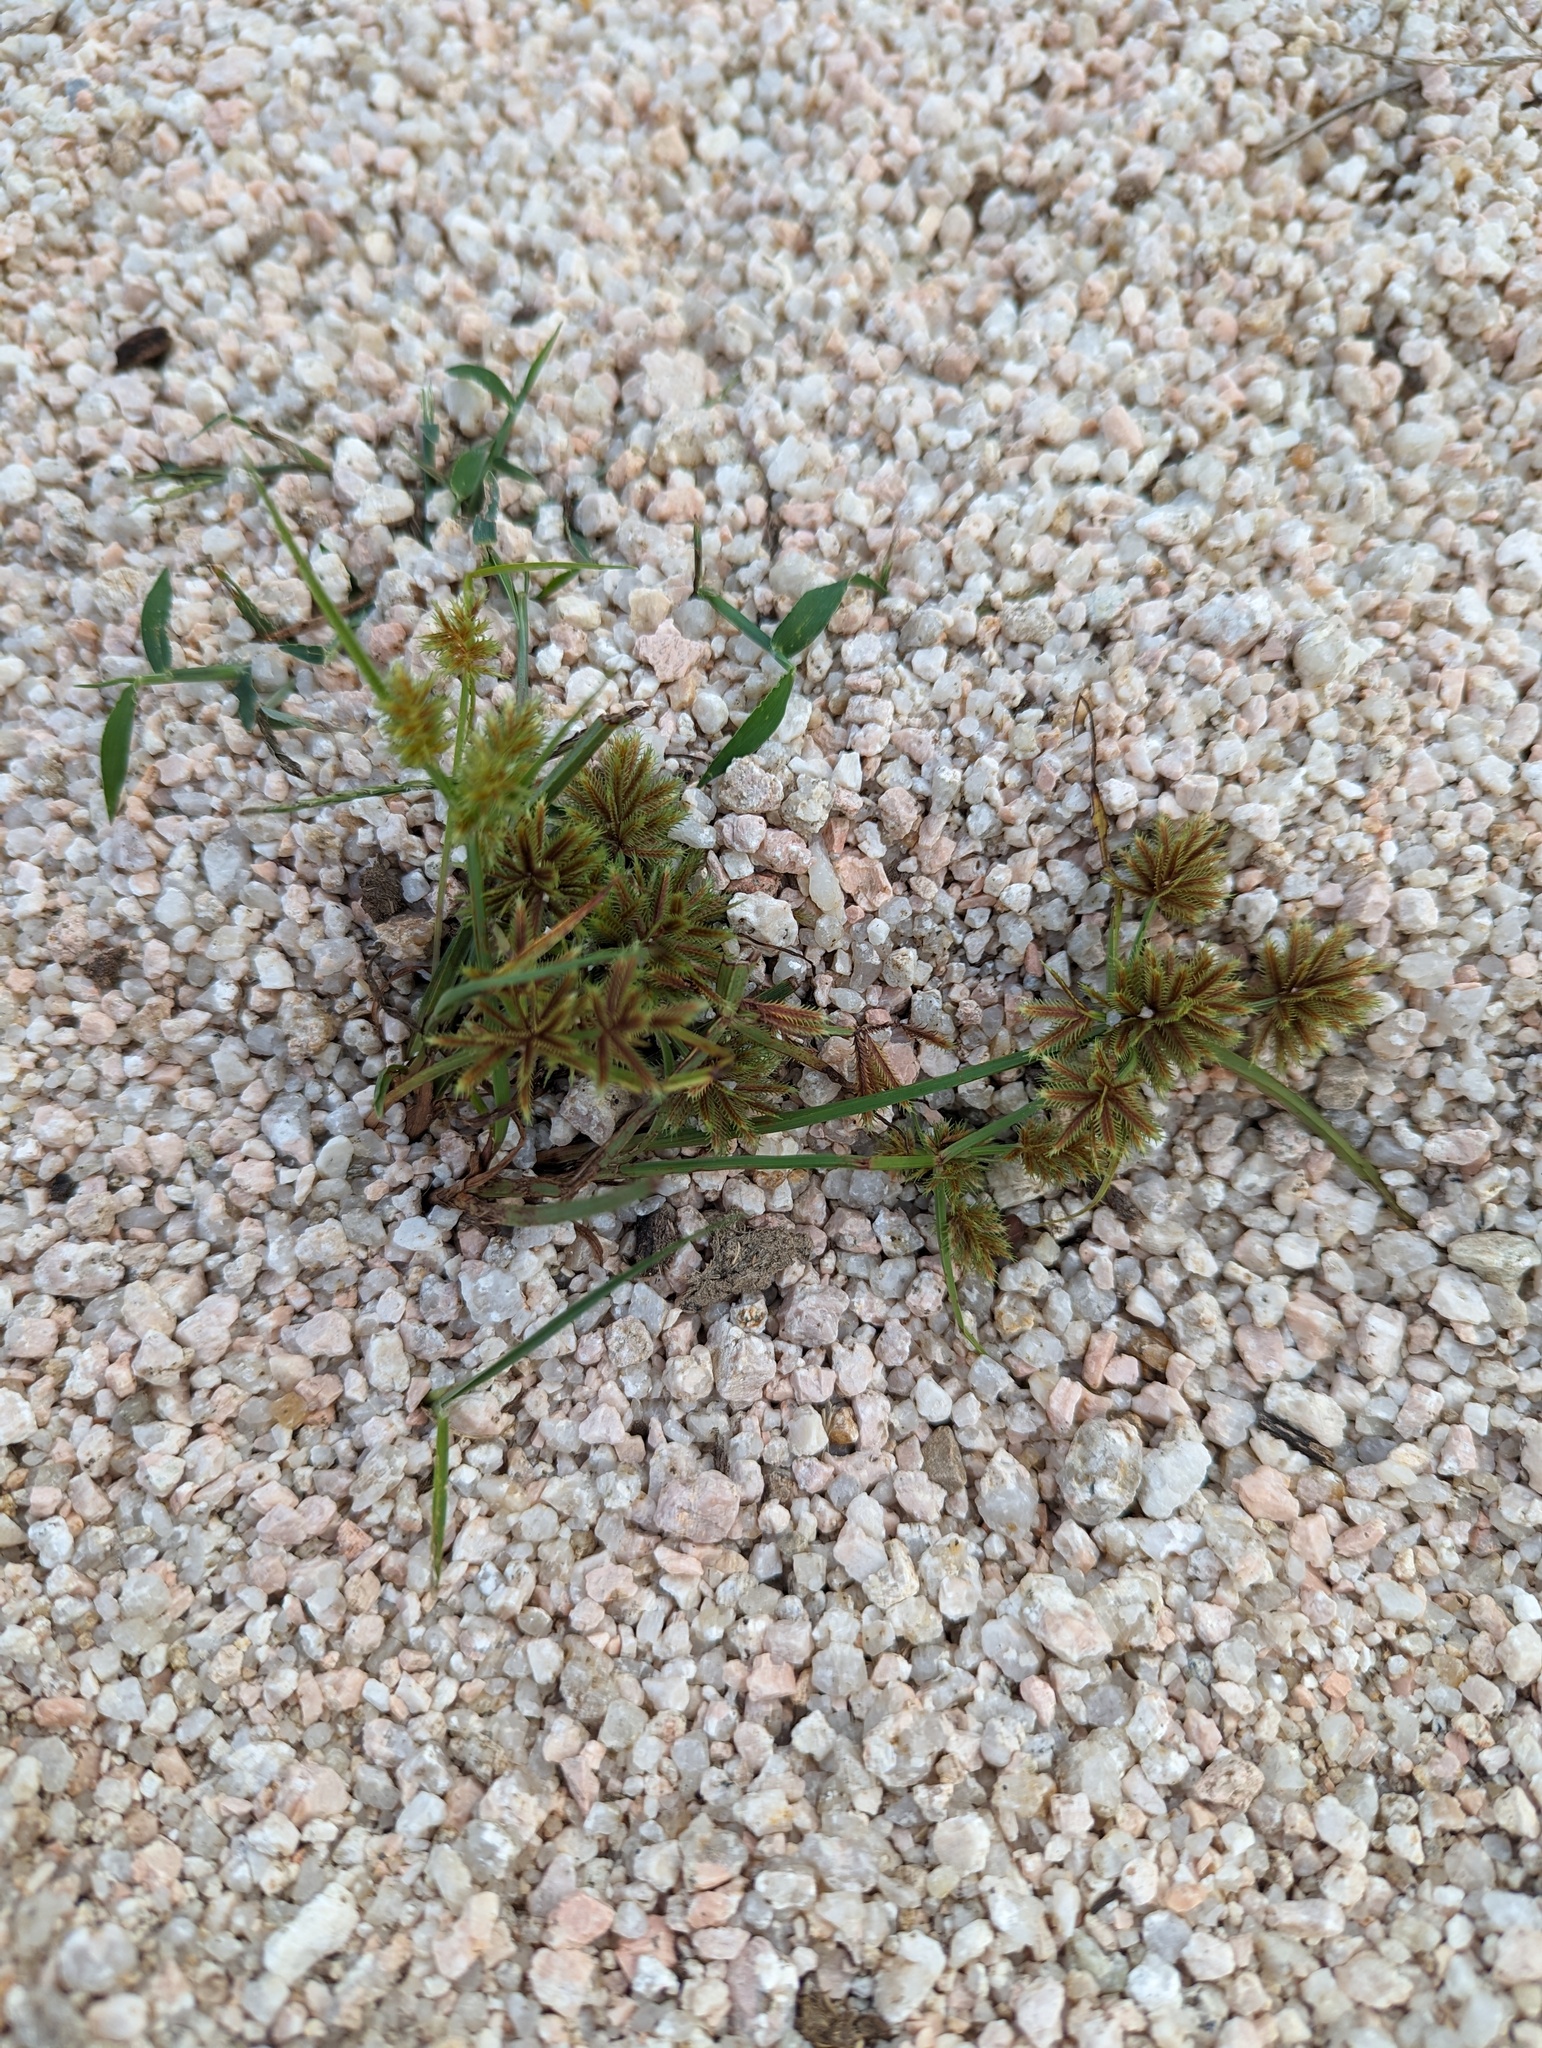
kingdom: Plantae
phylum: Tracheophyta
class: Liliopsida
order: Poales
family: Cyperaceae
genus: Cyperus
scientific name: Cyperus squarrosus
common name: Awned cyperus
